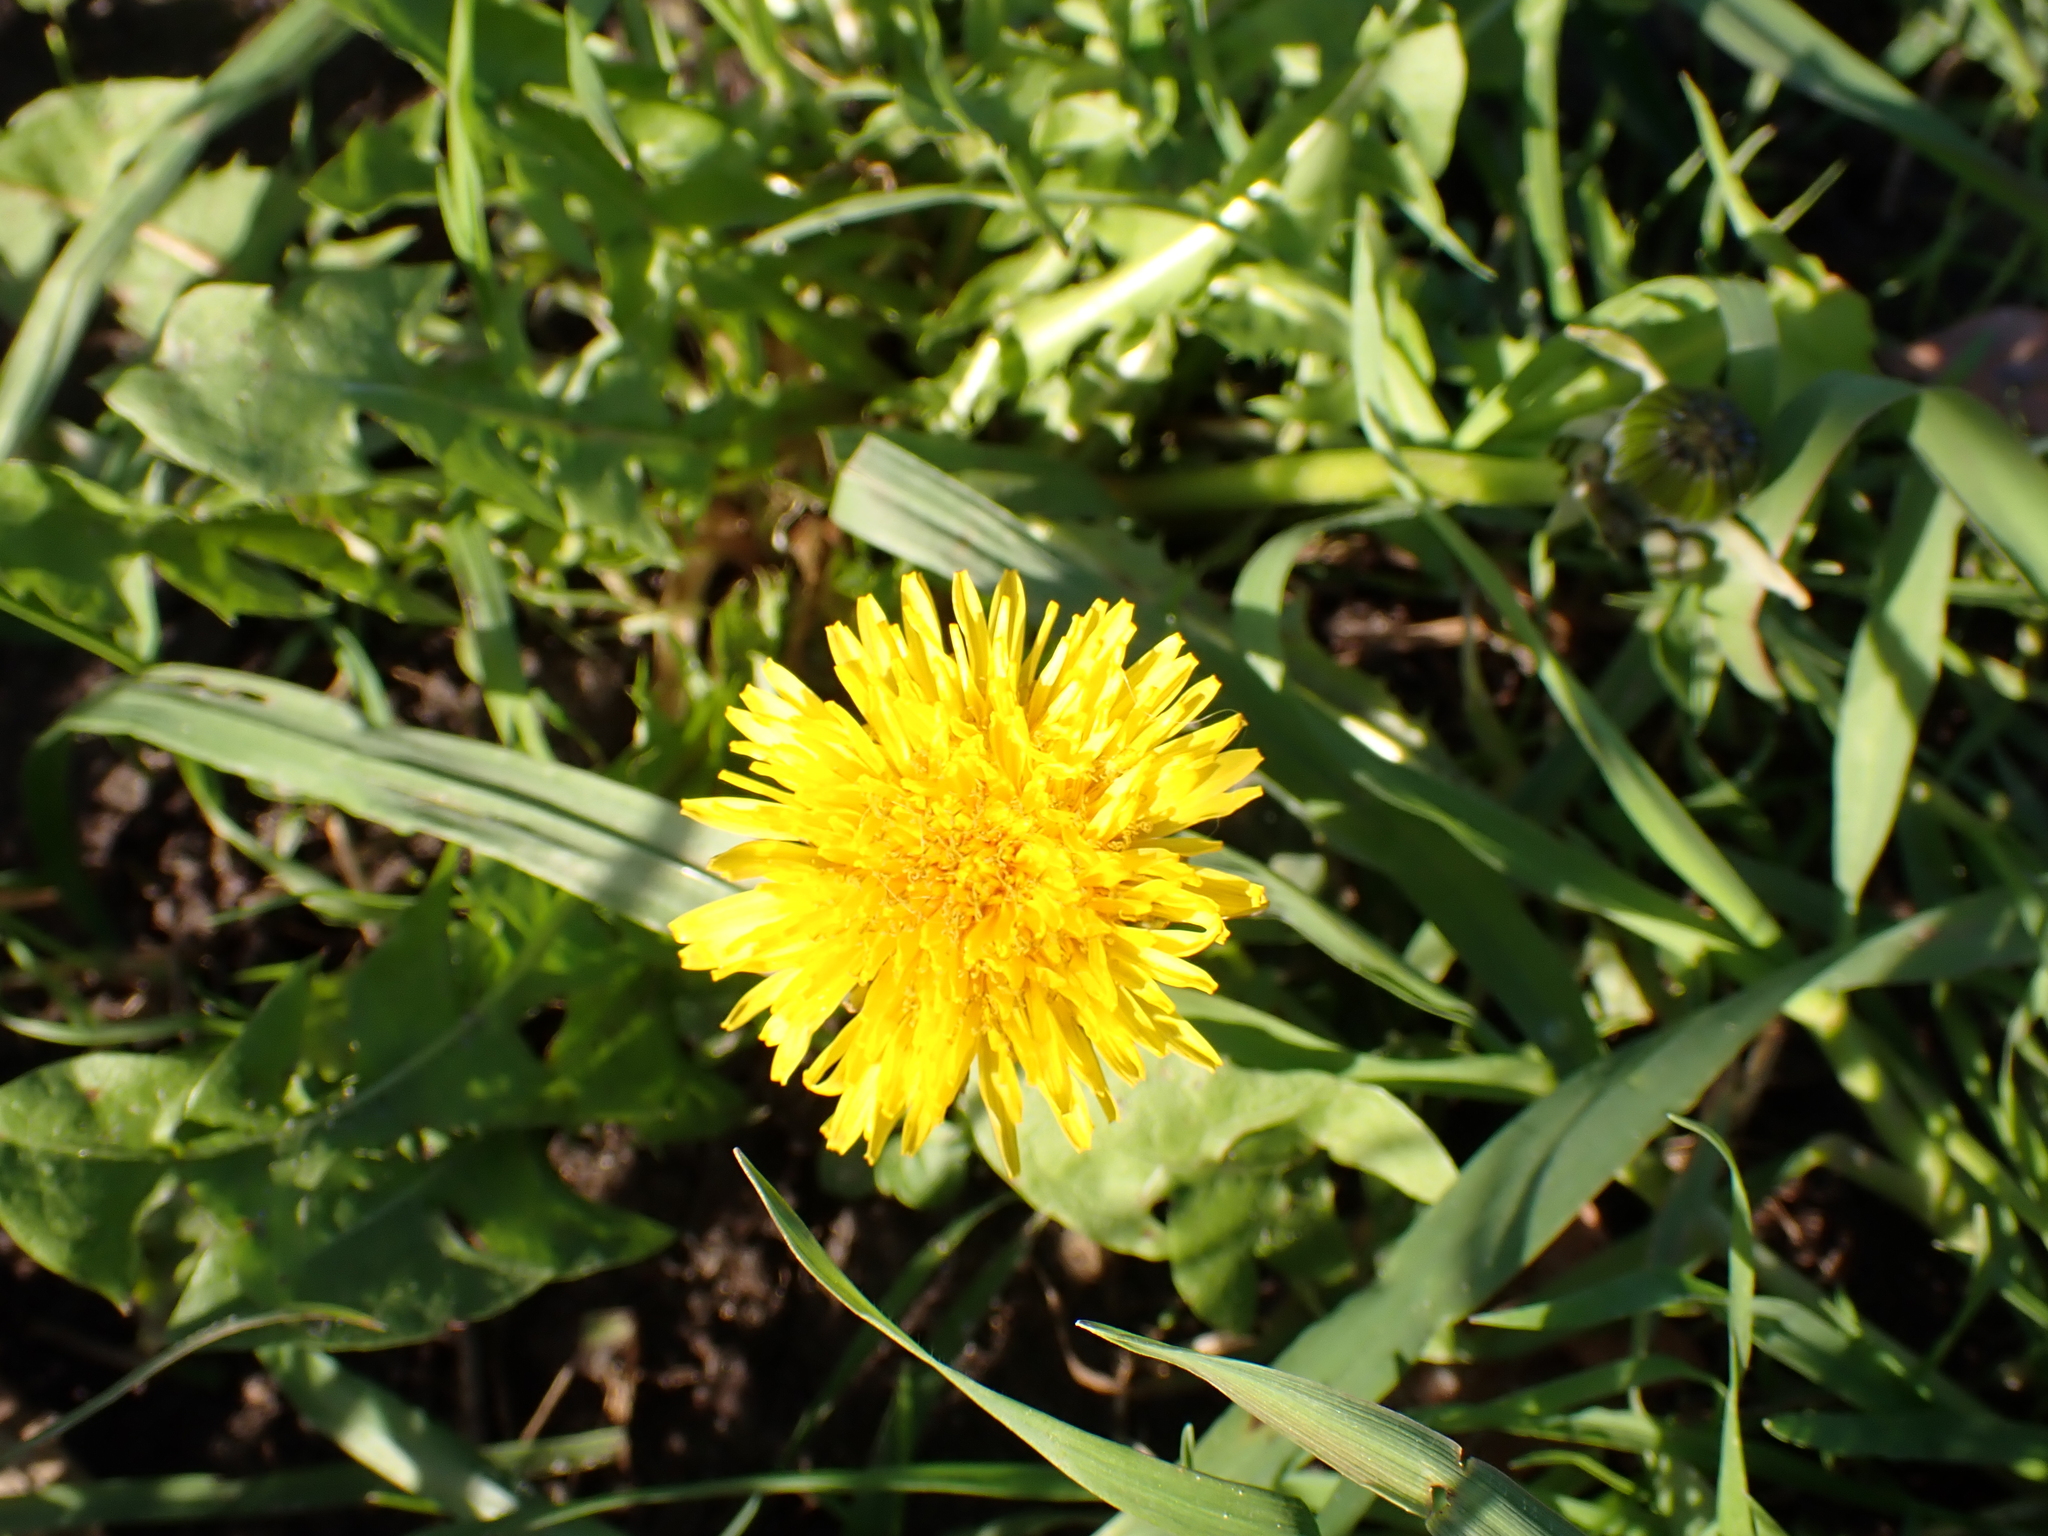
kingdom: Plantae
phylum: Tracheophyta
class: Magnoliopsida
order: Asterales
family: Asteraceae
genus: Taraxacum
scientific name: Taraxacum
